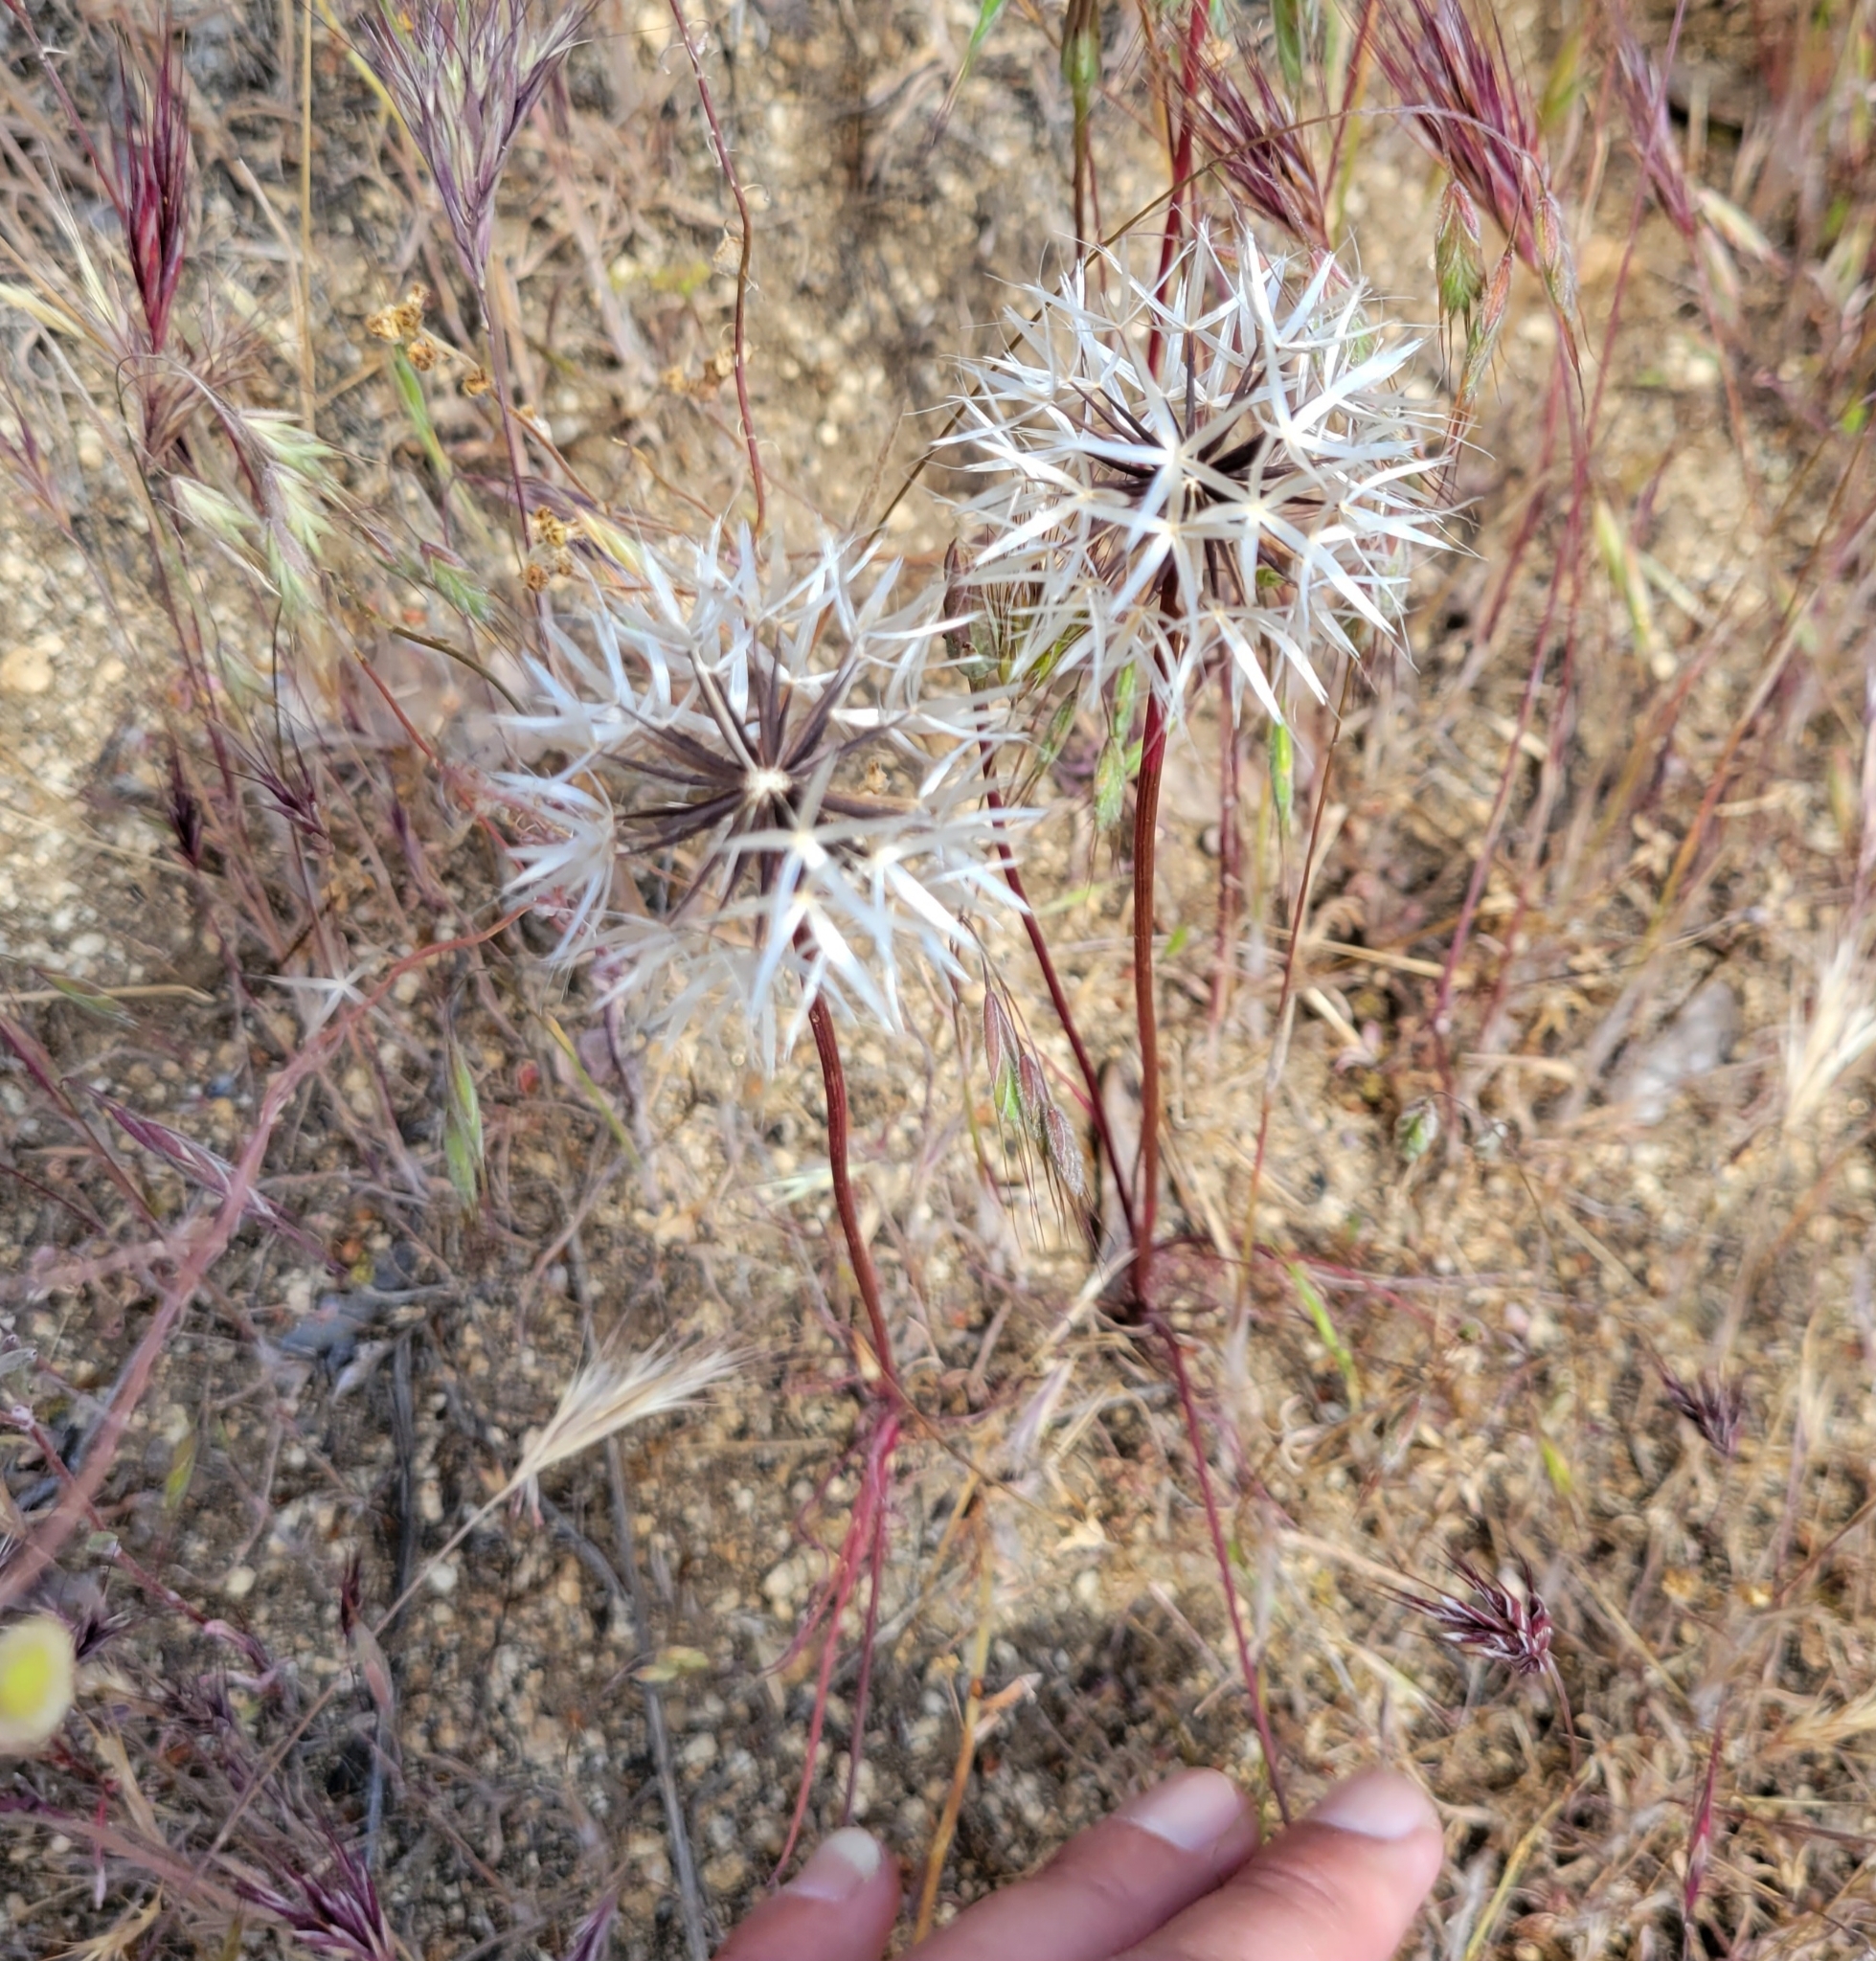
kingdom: Plantae
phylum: Tracheophyta
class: Magnoliopsida
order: Asterales
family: Asteraceae
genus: Microseris
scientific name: Microseris lindleyi
